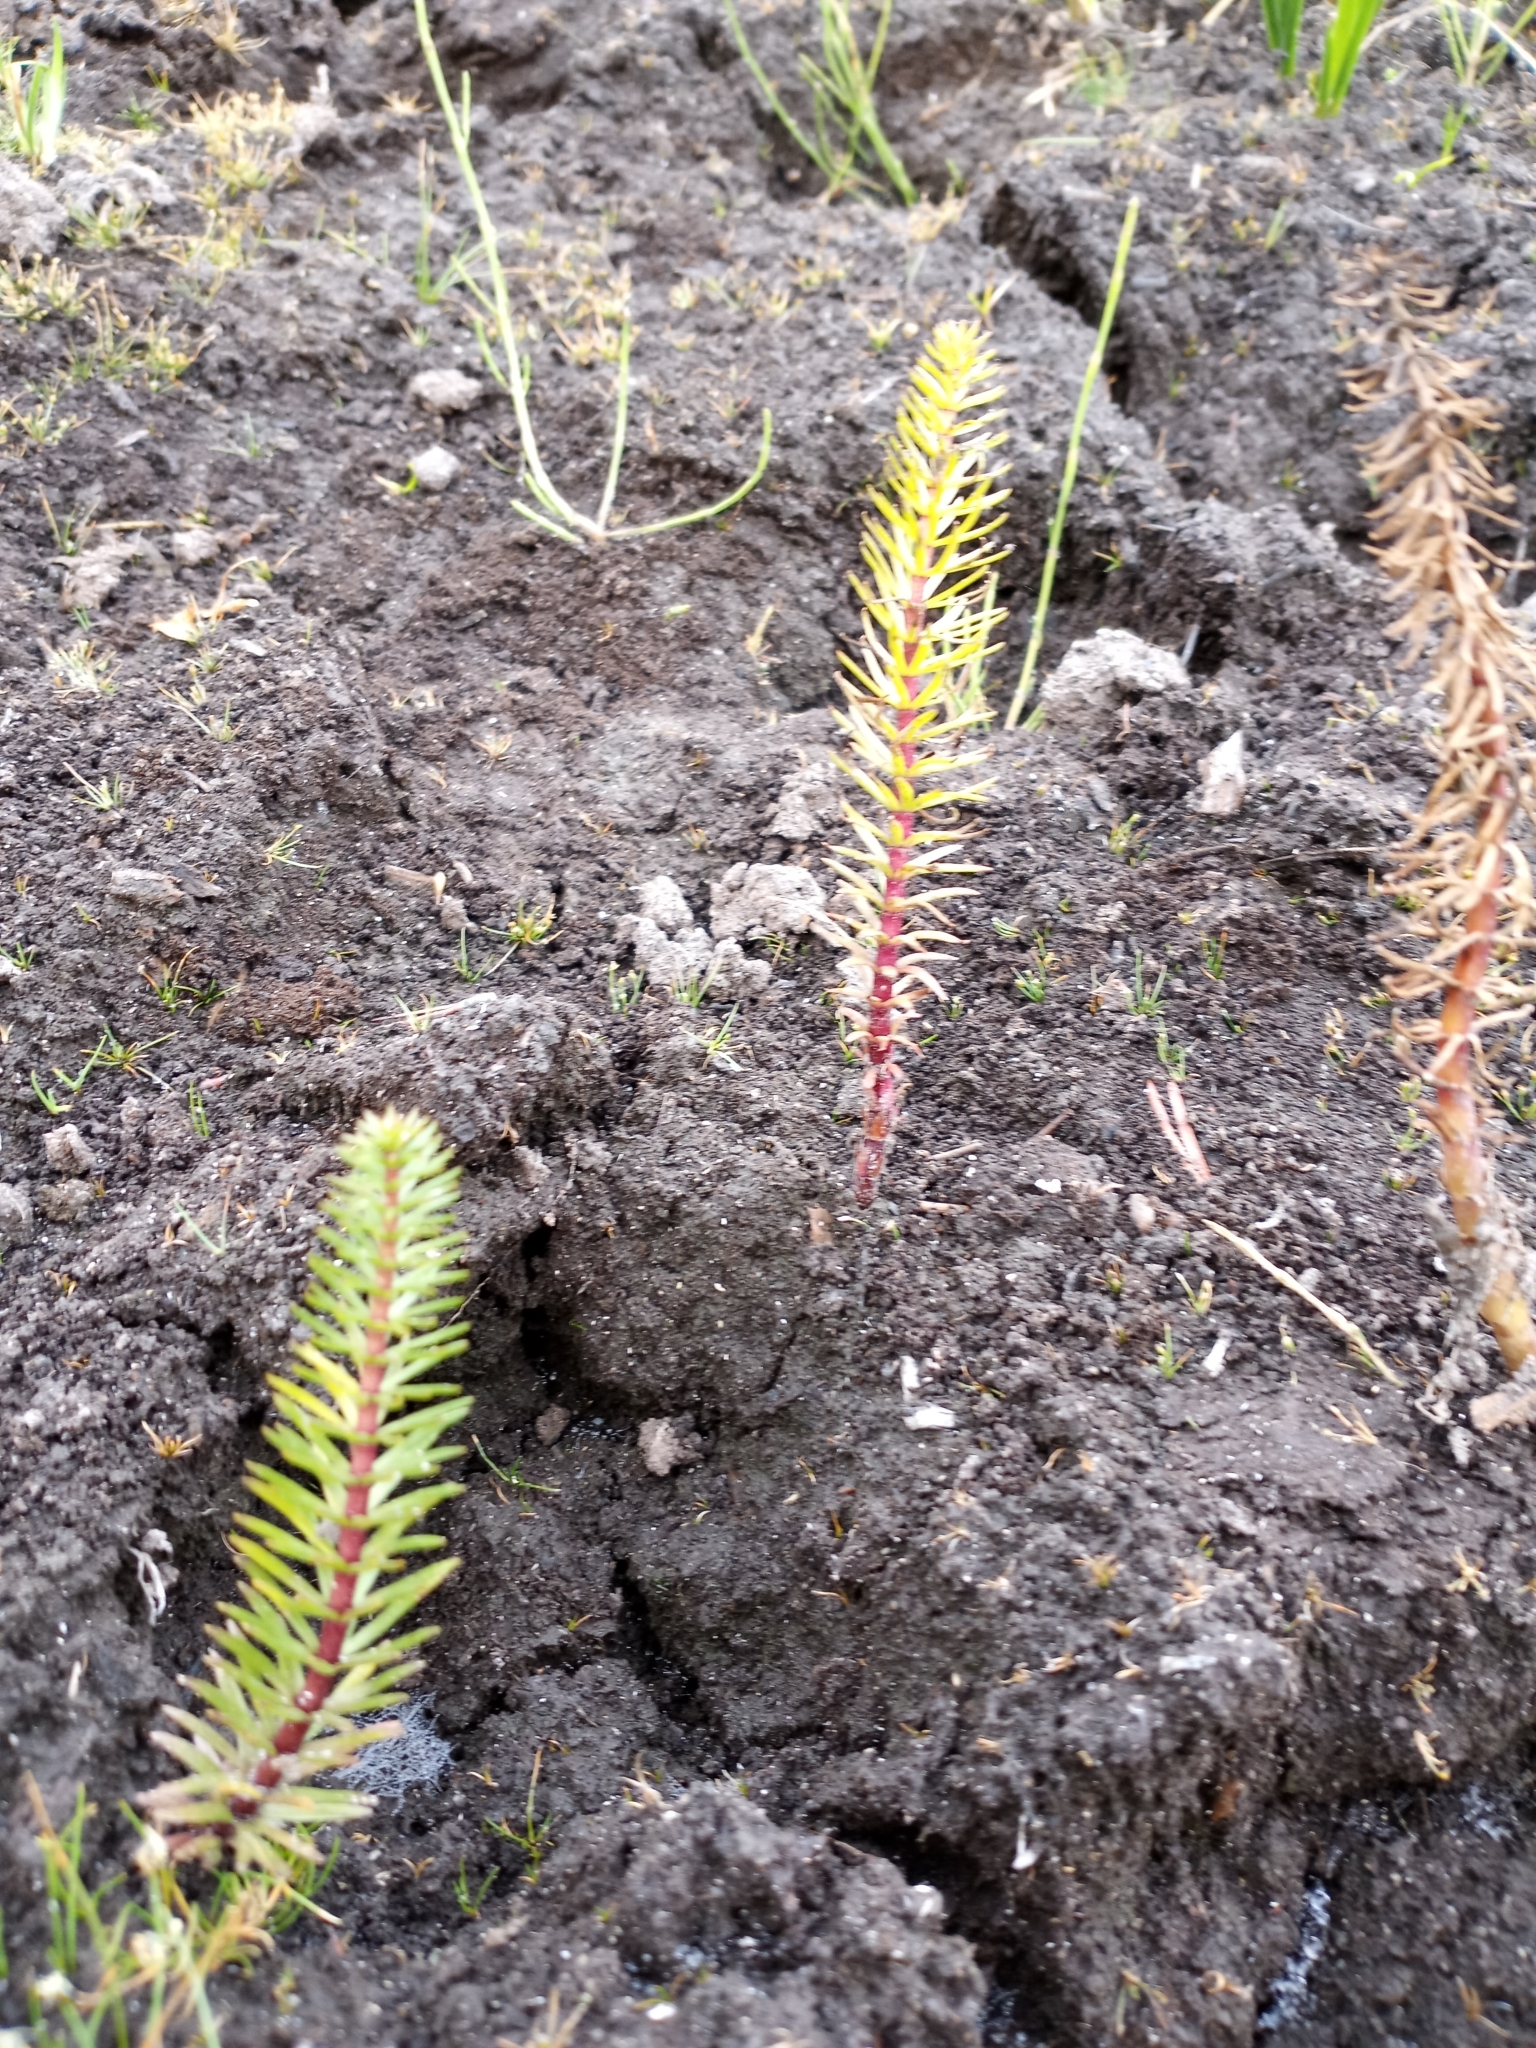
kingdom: Plantae
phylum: Tracheophyta
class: Magnoliopsida
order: Lamiales
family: Plantaginaceae
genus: Hippuris
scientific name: Hippuris vulgaris
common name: Mare's-tail
